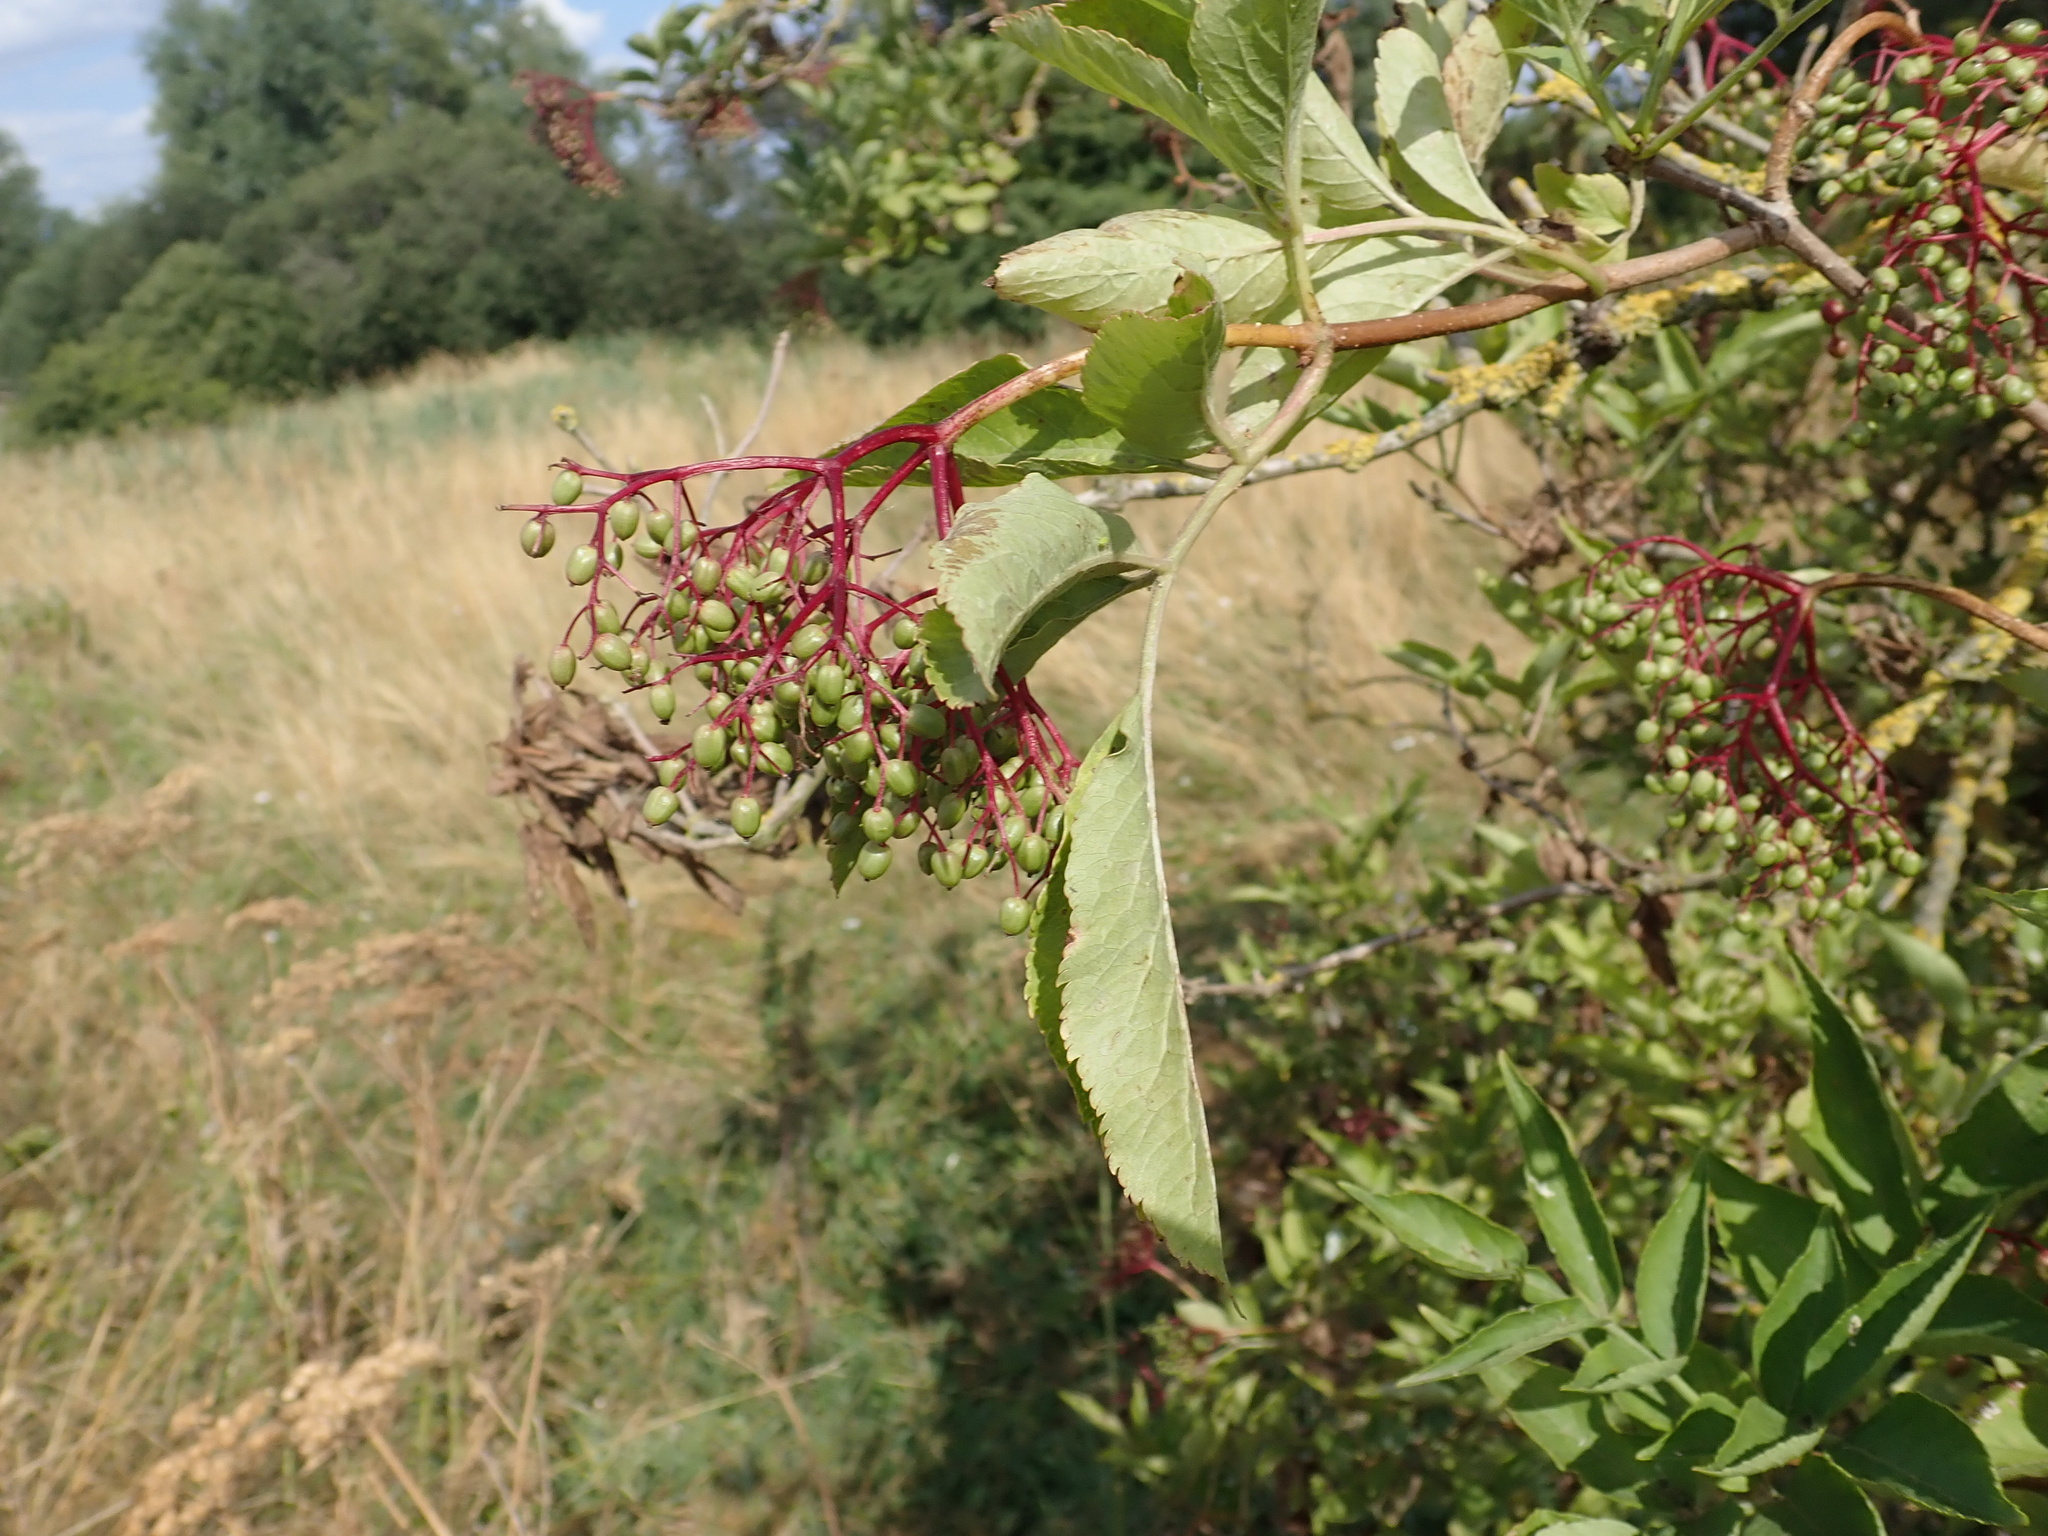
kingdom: Plantae
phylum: Tracheophyta
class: Magnoliopsida
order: Dipsacales
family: Viburnaceae
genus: Sambucus
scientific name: Sambucus nigra
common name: Elder
